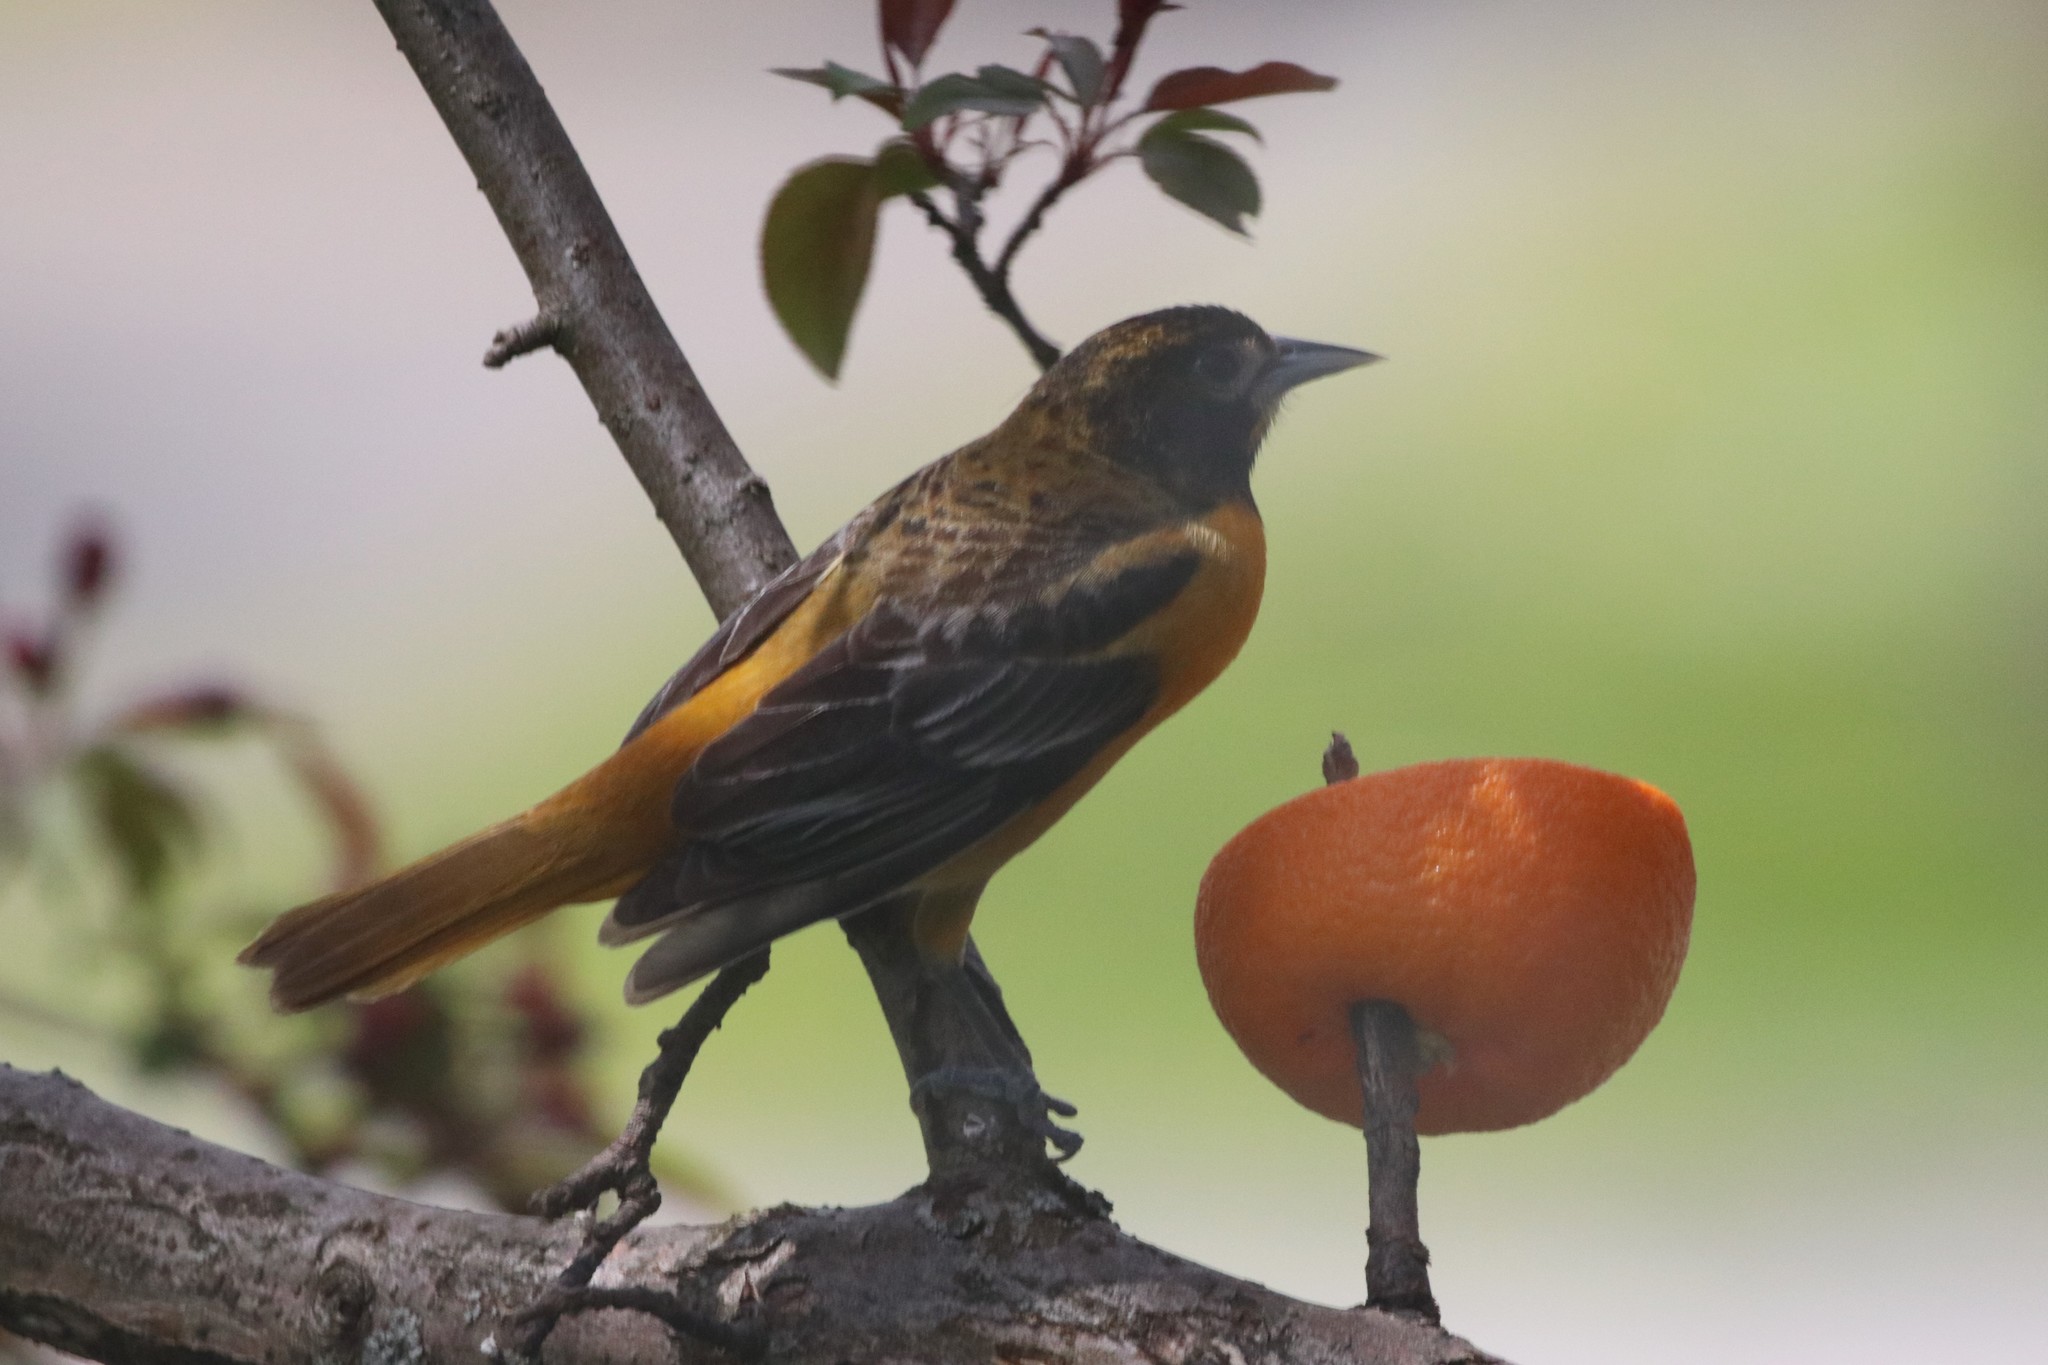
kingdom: Animalia
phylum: Chordata
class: Aves
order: Passeriformes
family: Icteridae
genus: Icterus
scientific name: Icterus galbula
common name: Baltimore oriole
